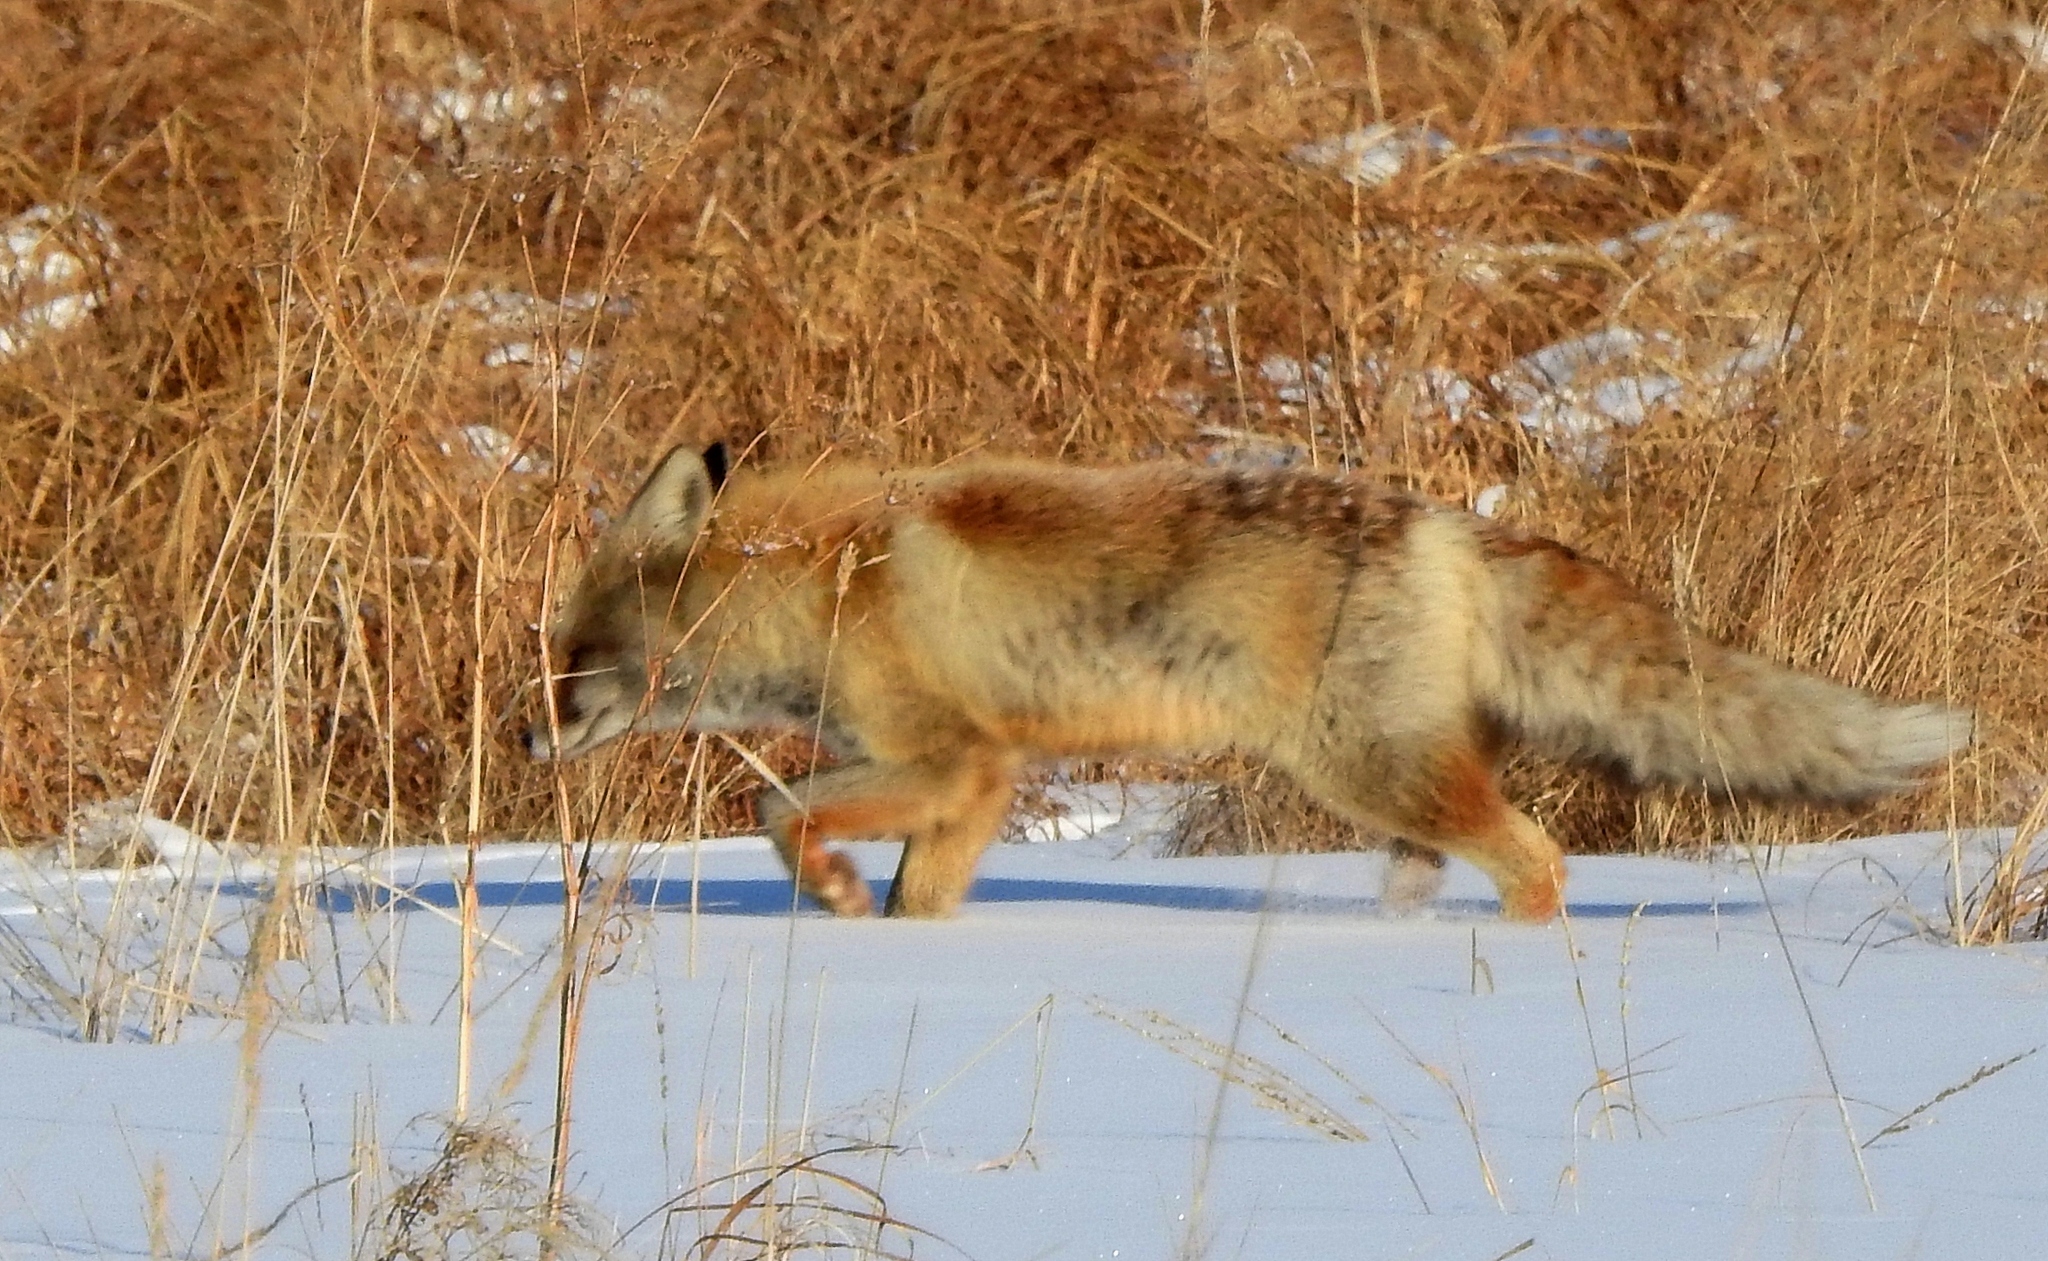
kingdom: Animalia
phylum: Chordata
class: Mammalia
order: Carnivora
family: Canidae
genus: Vulpes
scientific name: Vulpes vulpes
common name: Red fox
